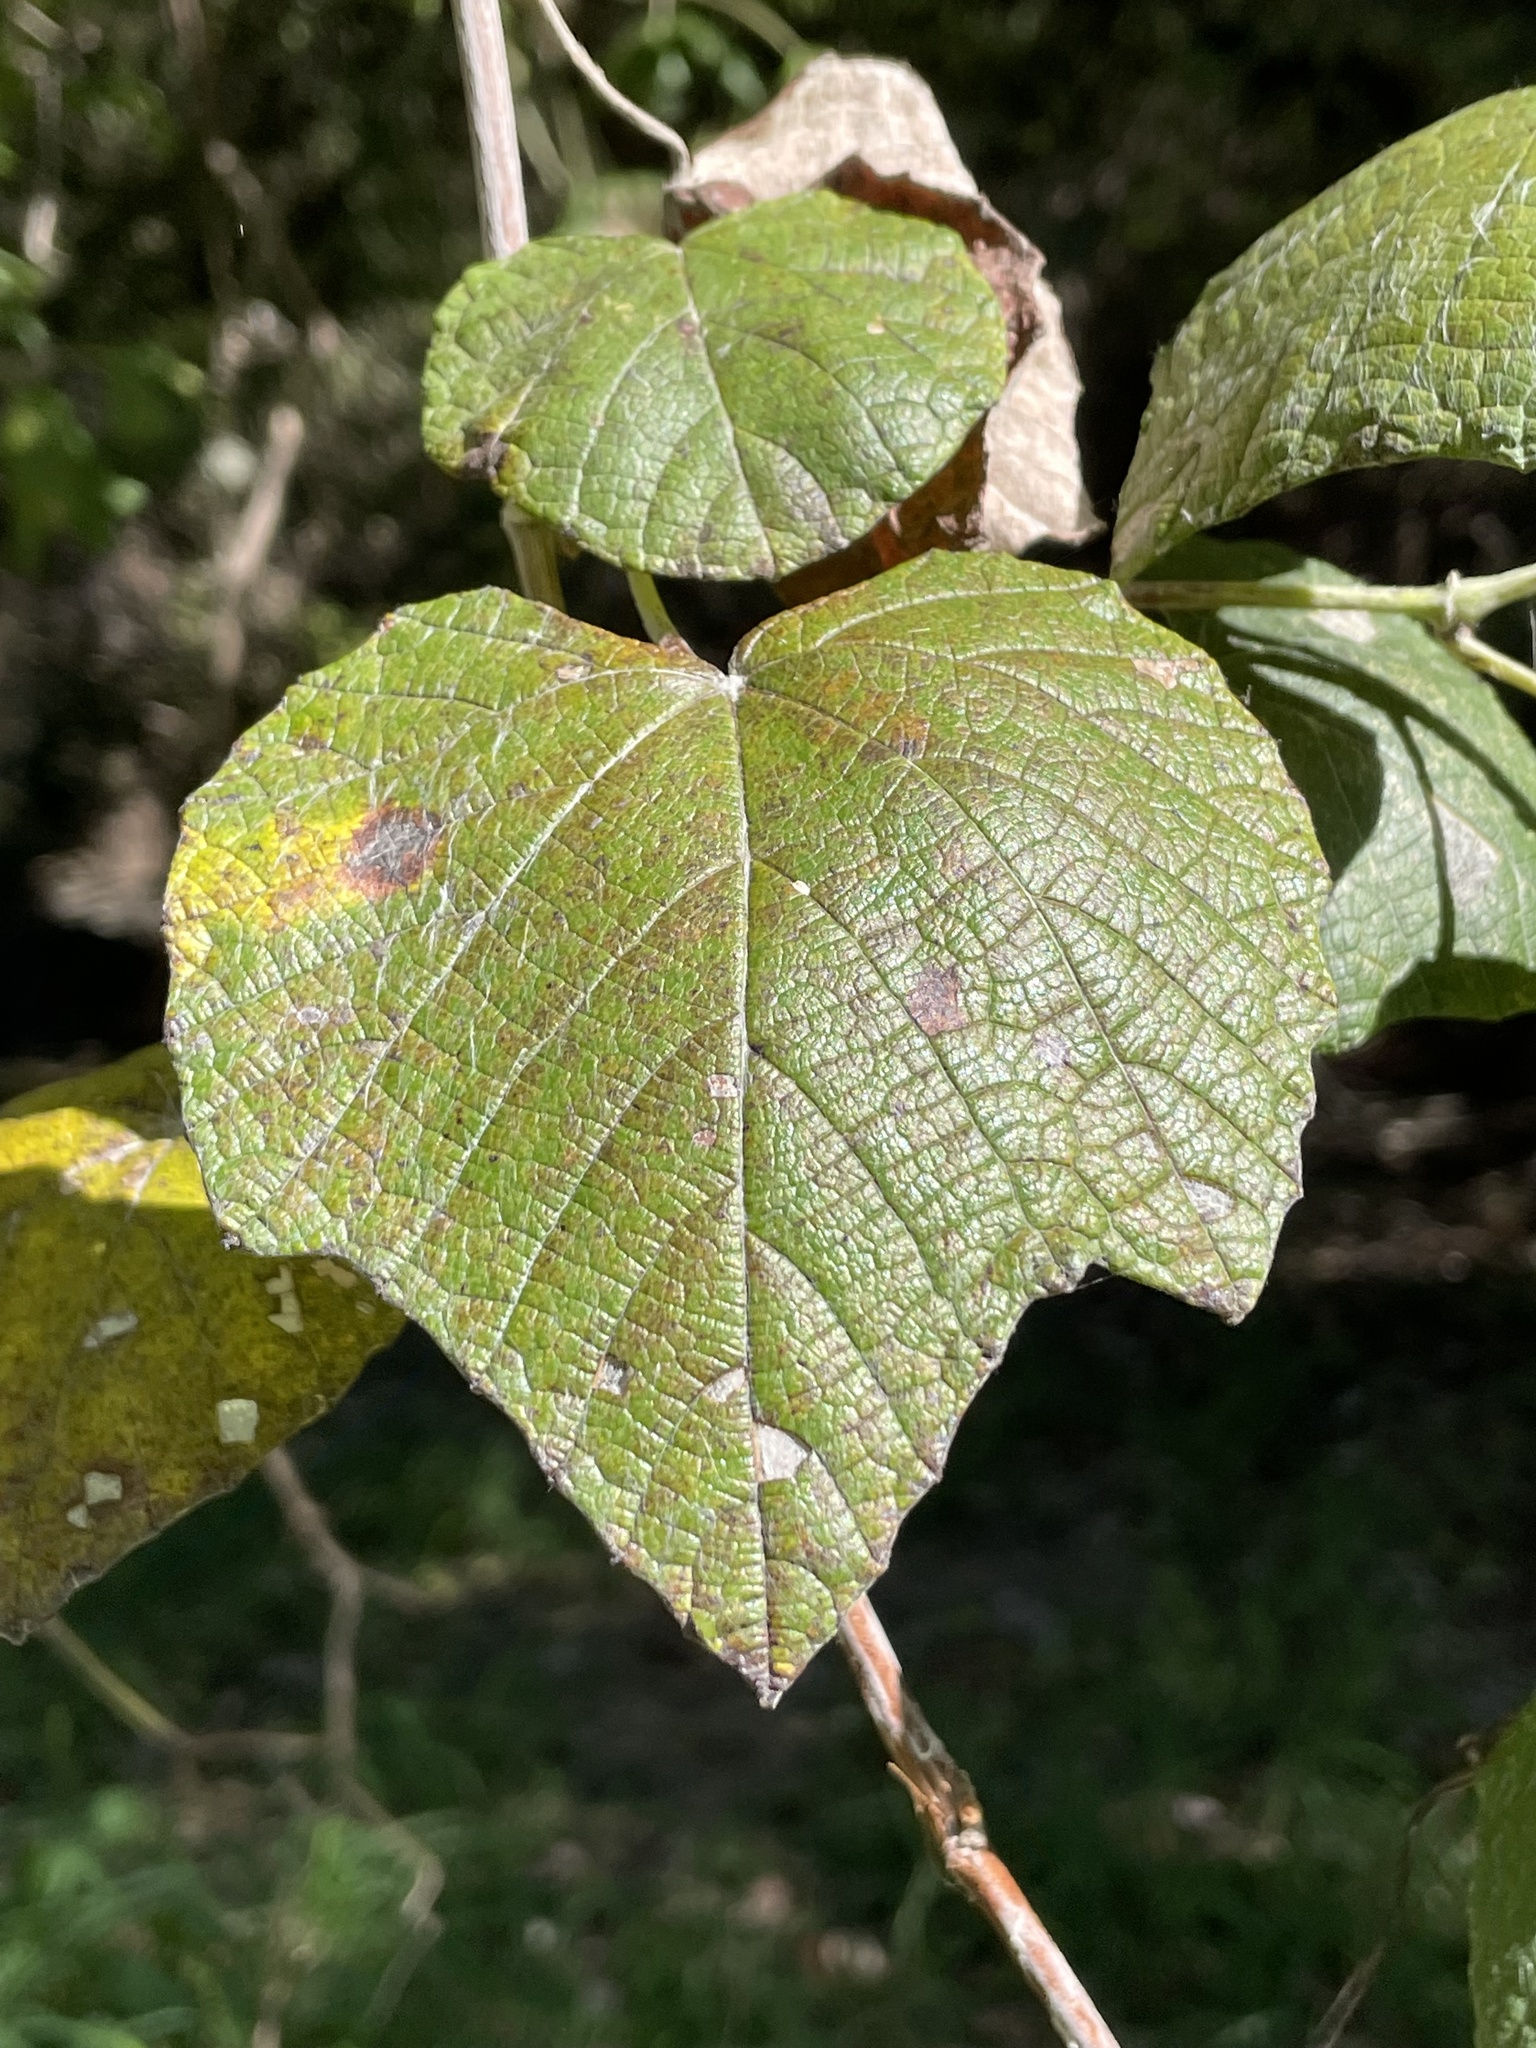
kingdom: Plantae
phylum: Tracheophyta
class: Magnoliopsida
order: Vitales
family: Vitaceae
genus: Vitis
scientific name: Vitis mustangensis
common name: Mustang grape
